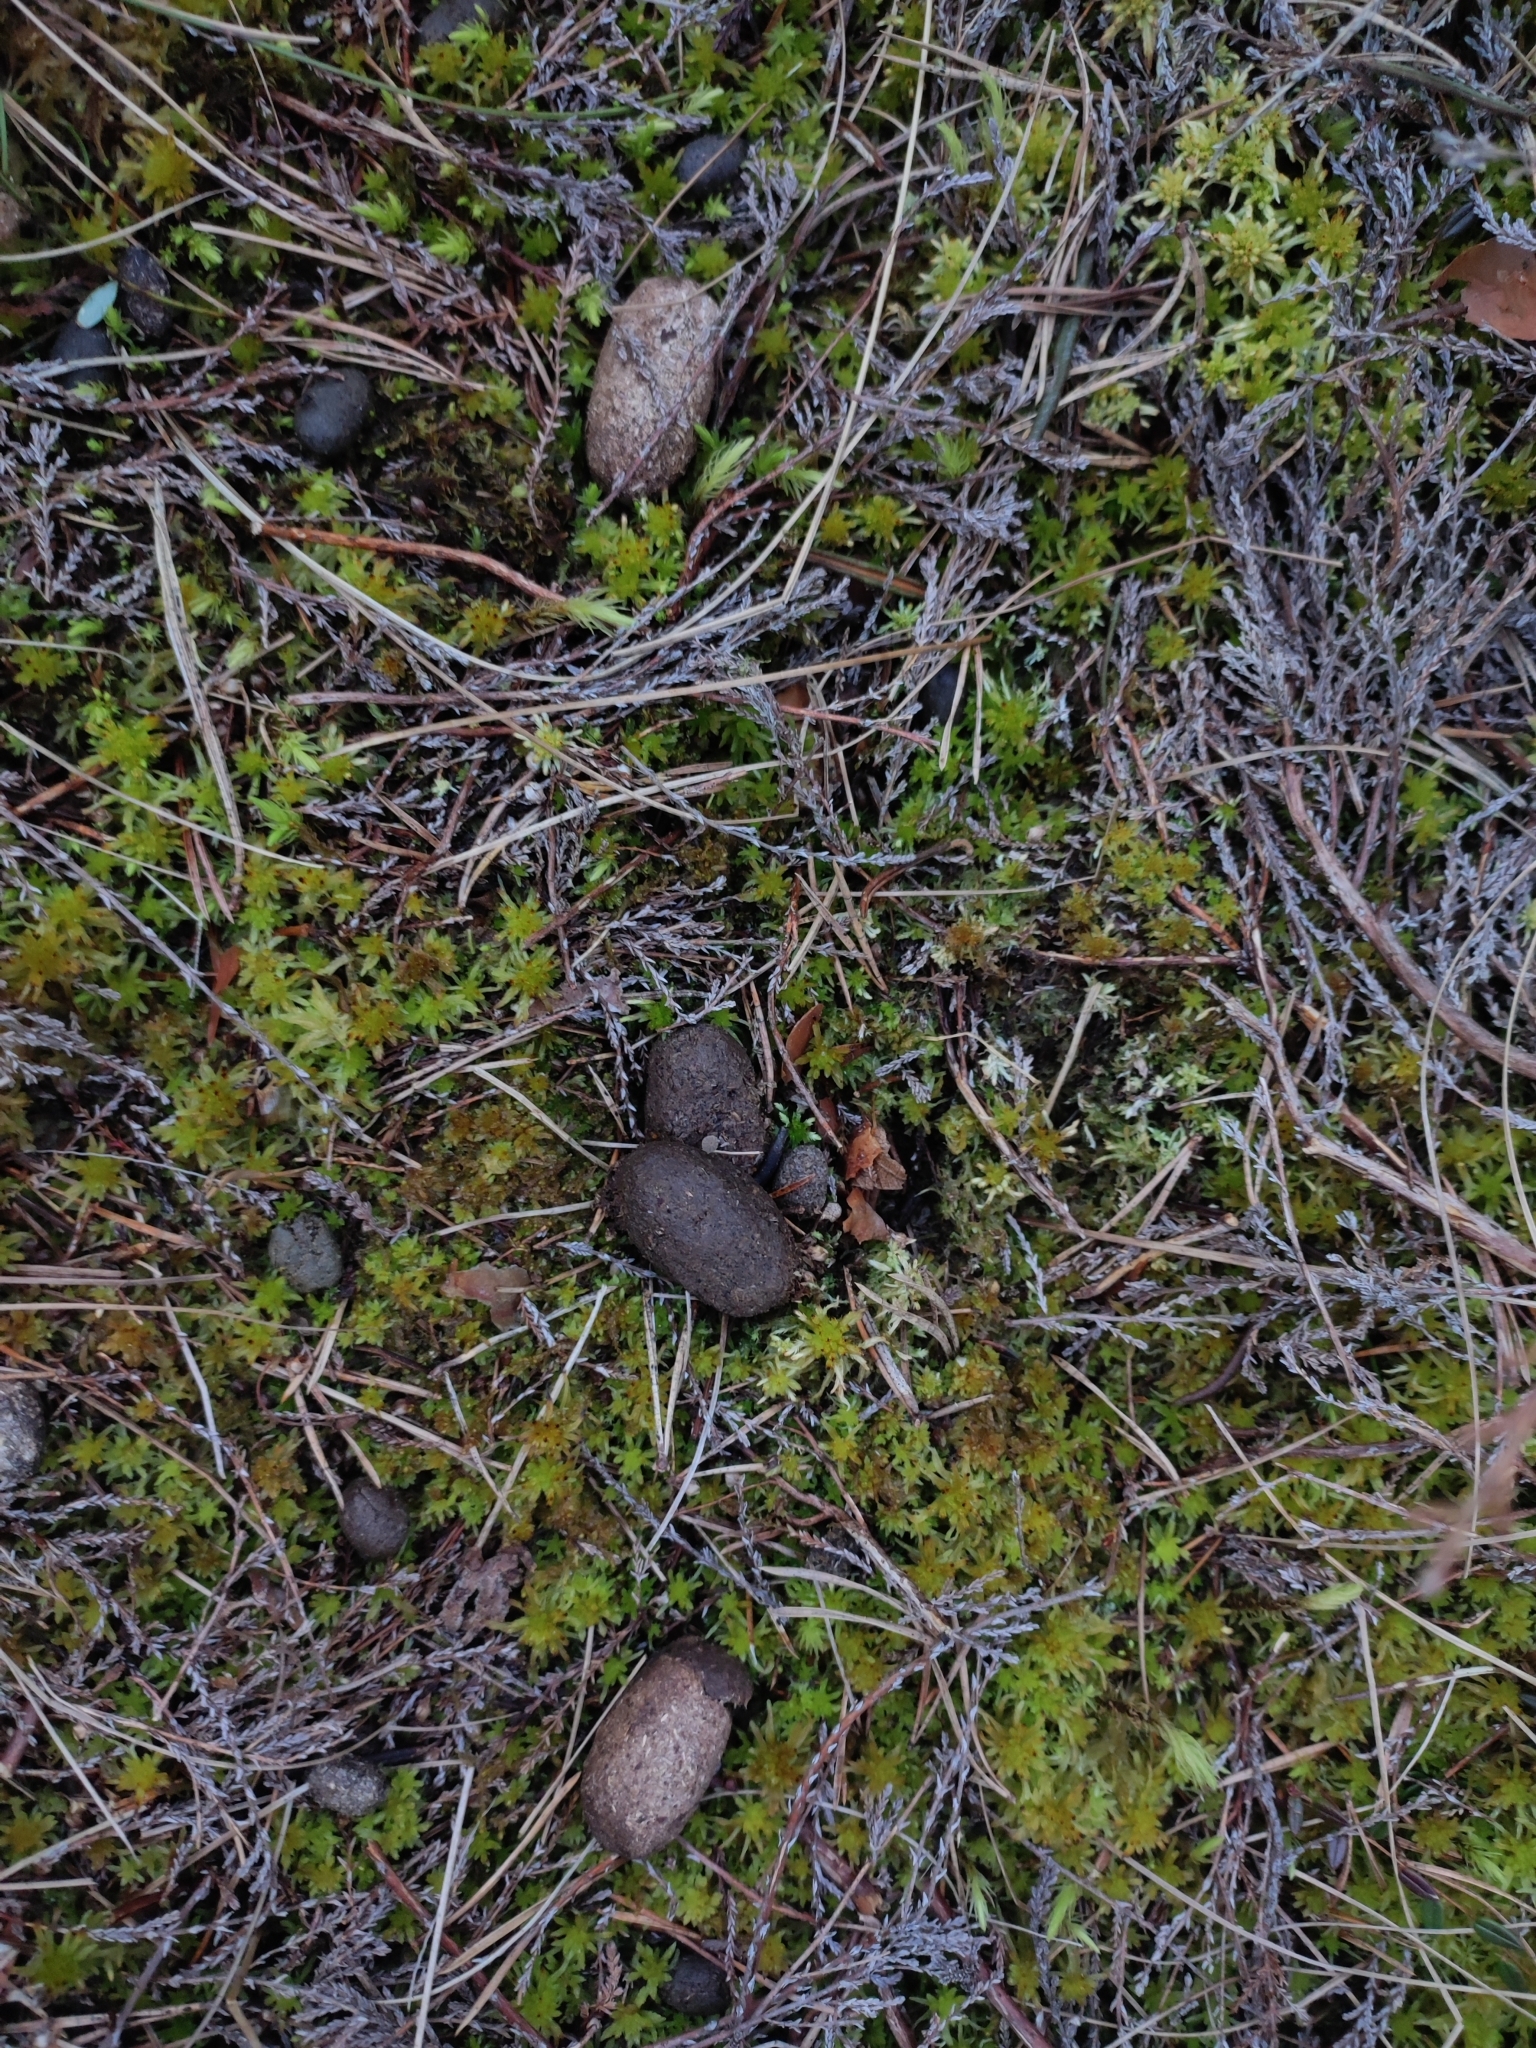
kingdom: Animalia
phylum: Chordata
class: Mammalia
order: Artiodactyla
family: Cervidae
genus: Alces
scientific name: Alces alces
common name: Moose
